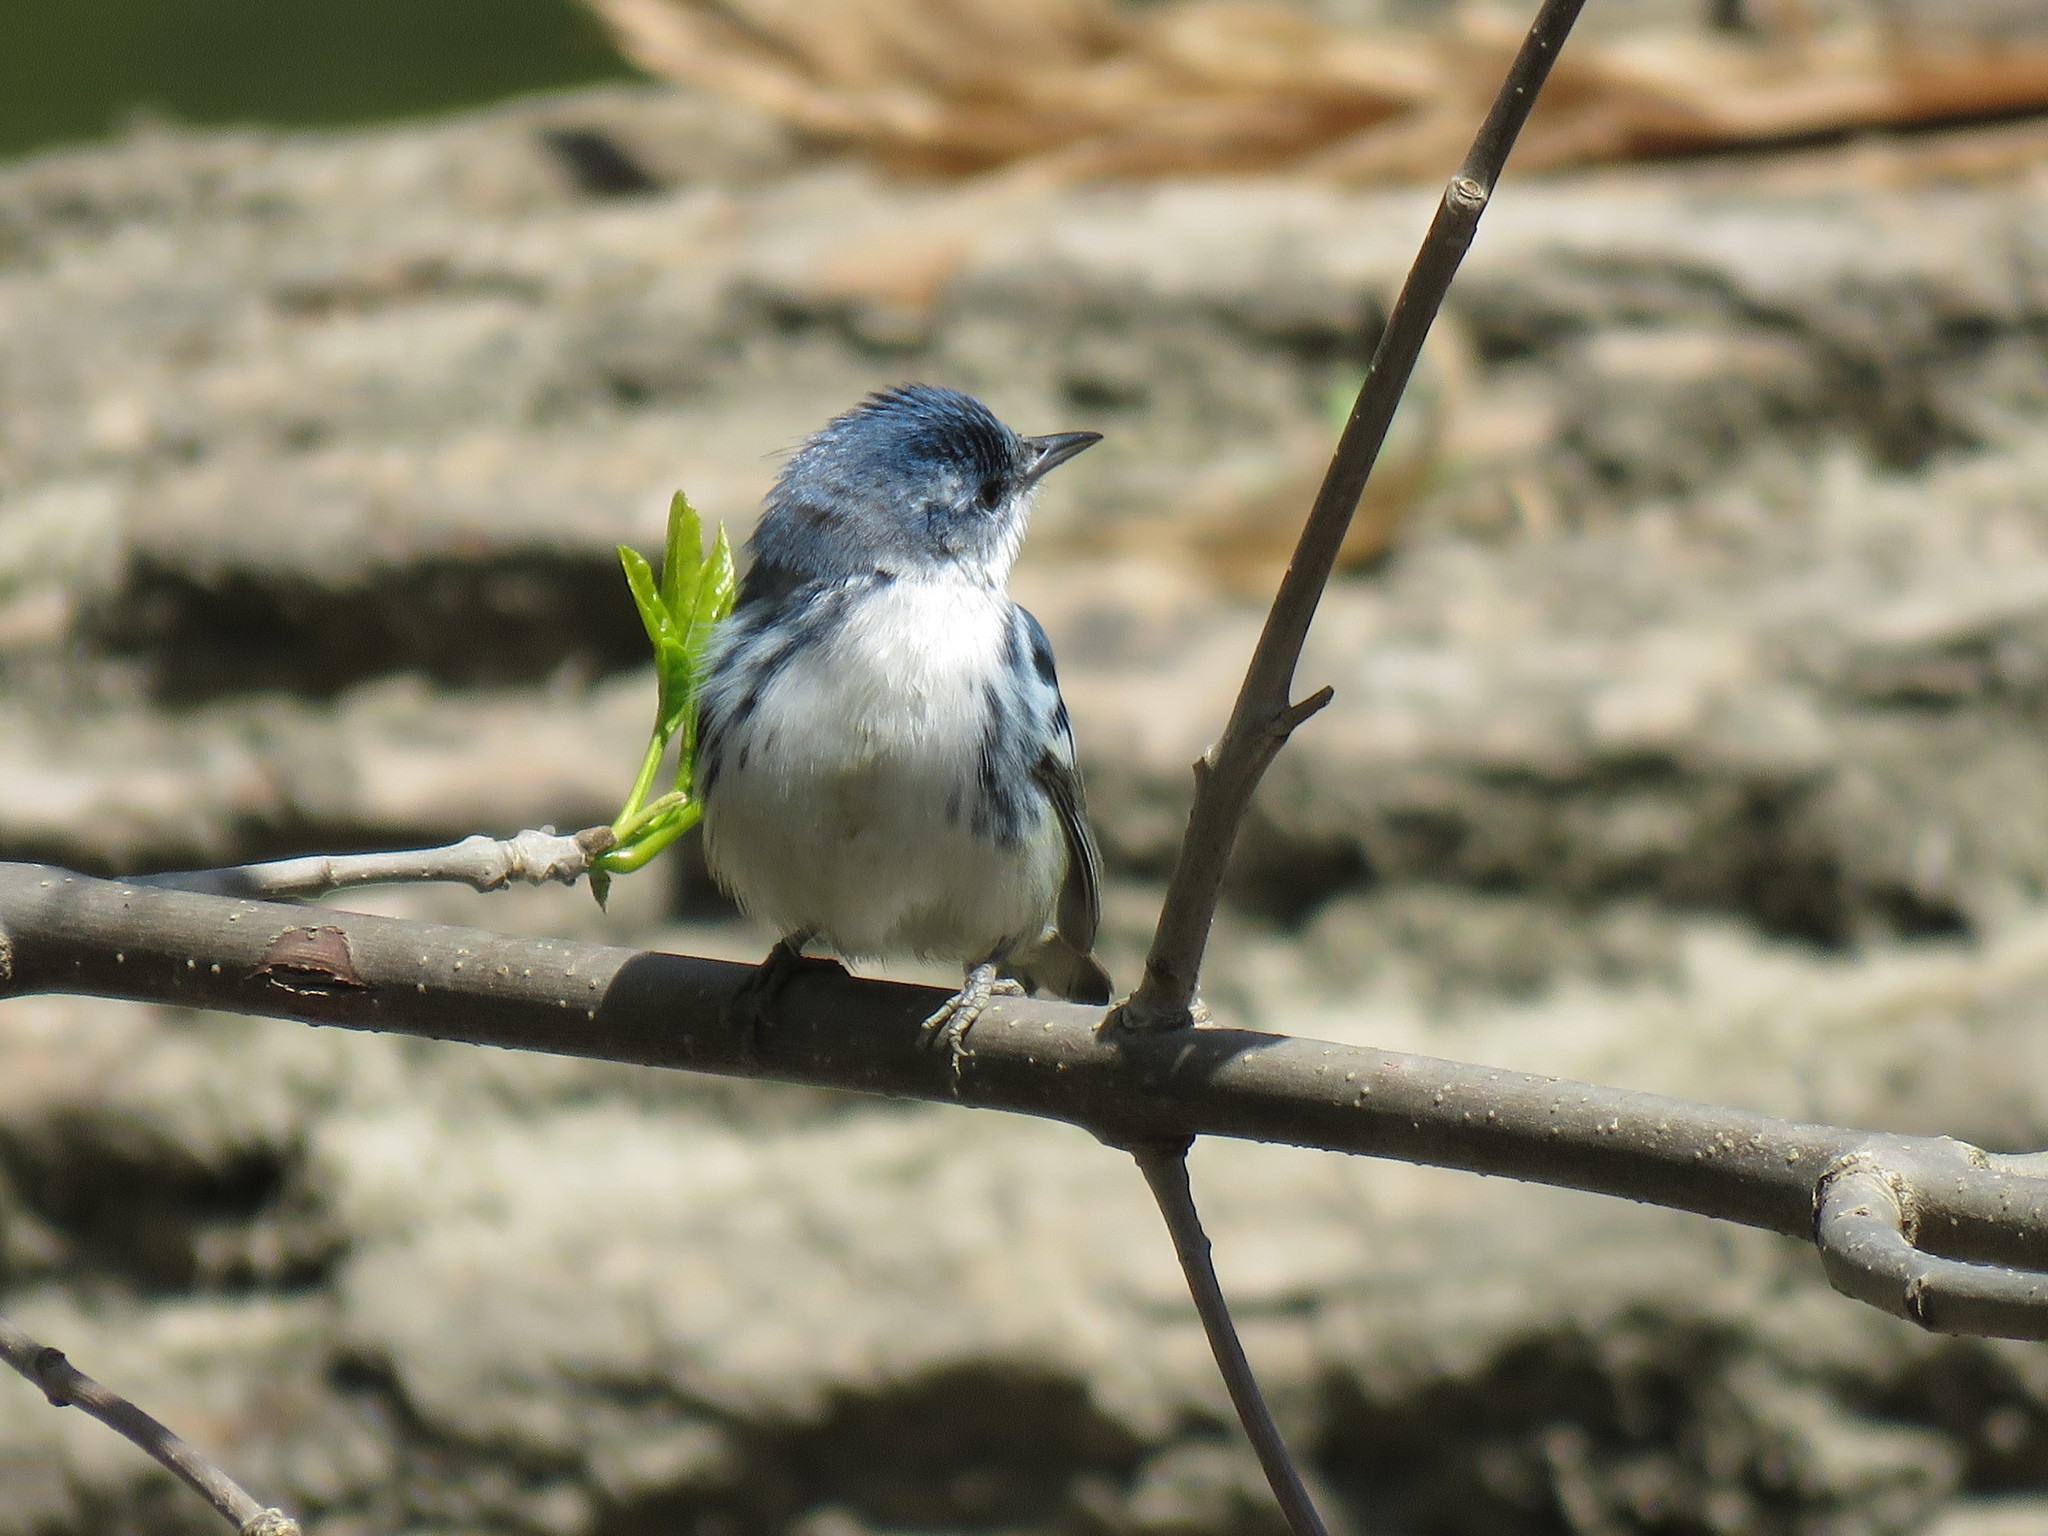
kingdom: Animalia
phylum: Chordata
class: Aves
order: Passeriformes
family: Parulidae
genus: Setophaga
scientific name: Setophaga cerulea
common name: Cerulean warbler
